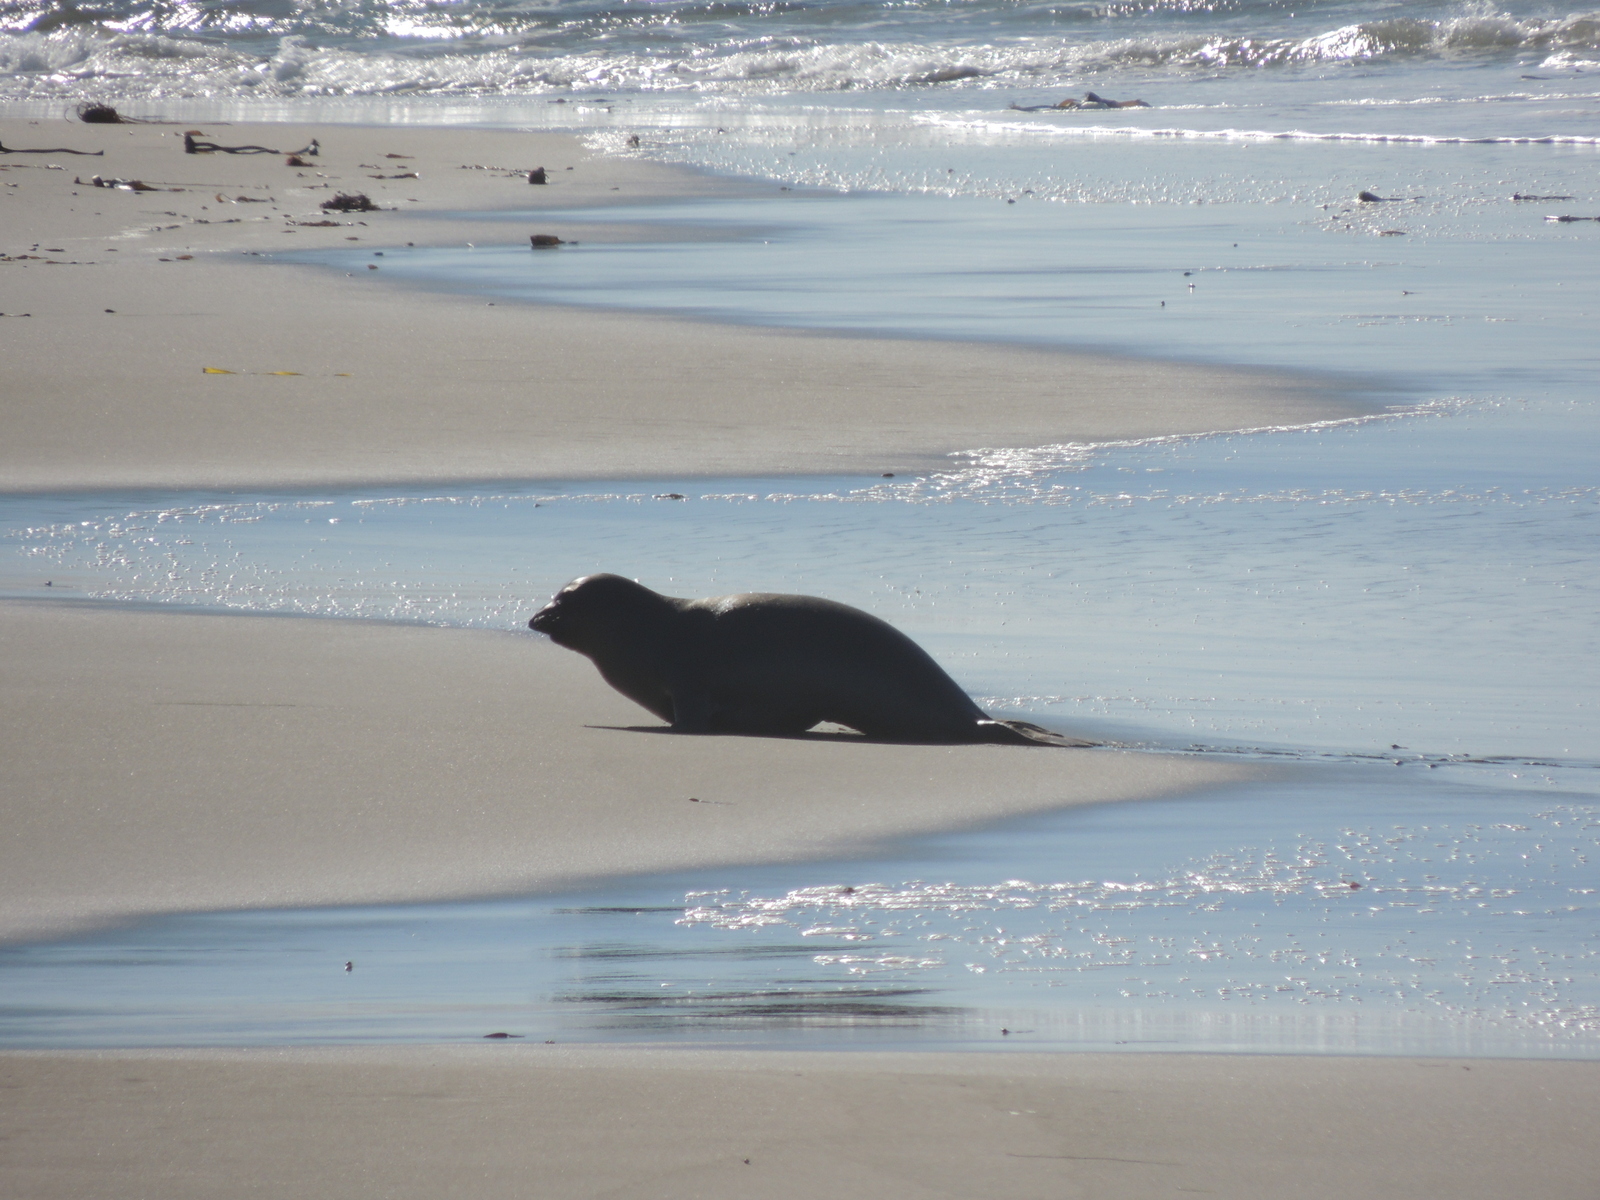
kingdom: Animalia
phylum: Chordata
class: Mammalia
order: Carnivora
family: Phocidae
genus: Mirounga
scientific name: Mirounga angustirostris
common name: Northern elephant seal
